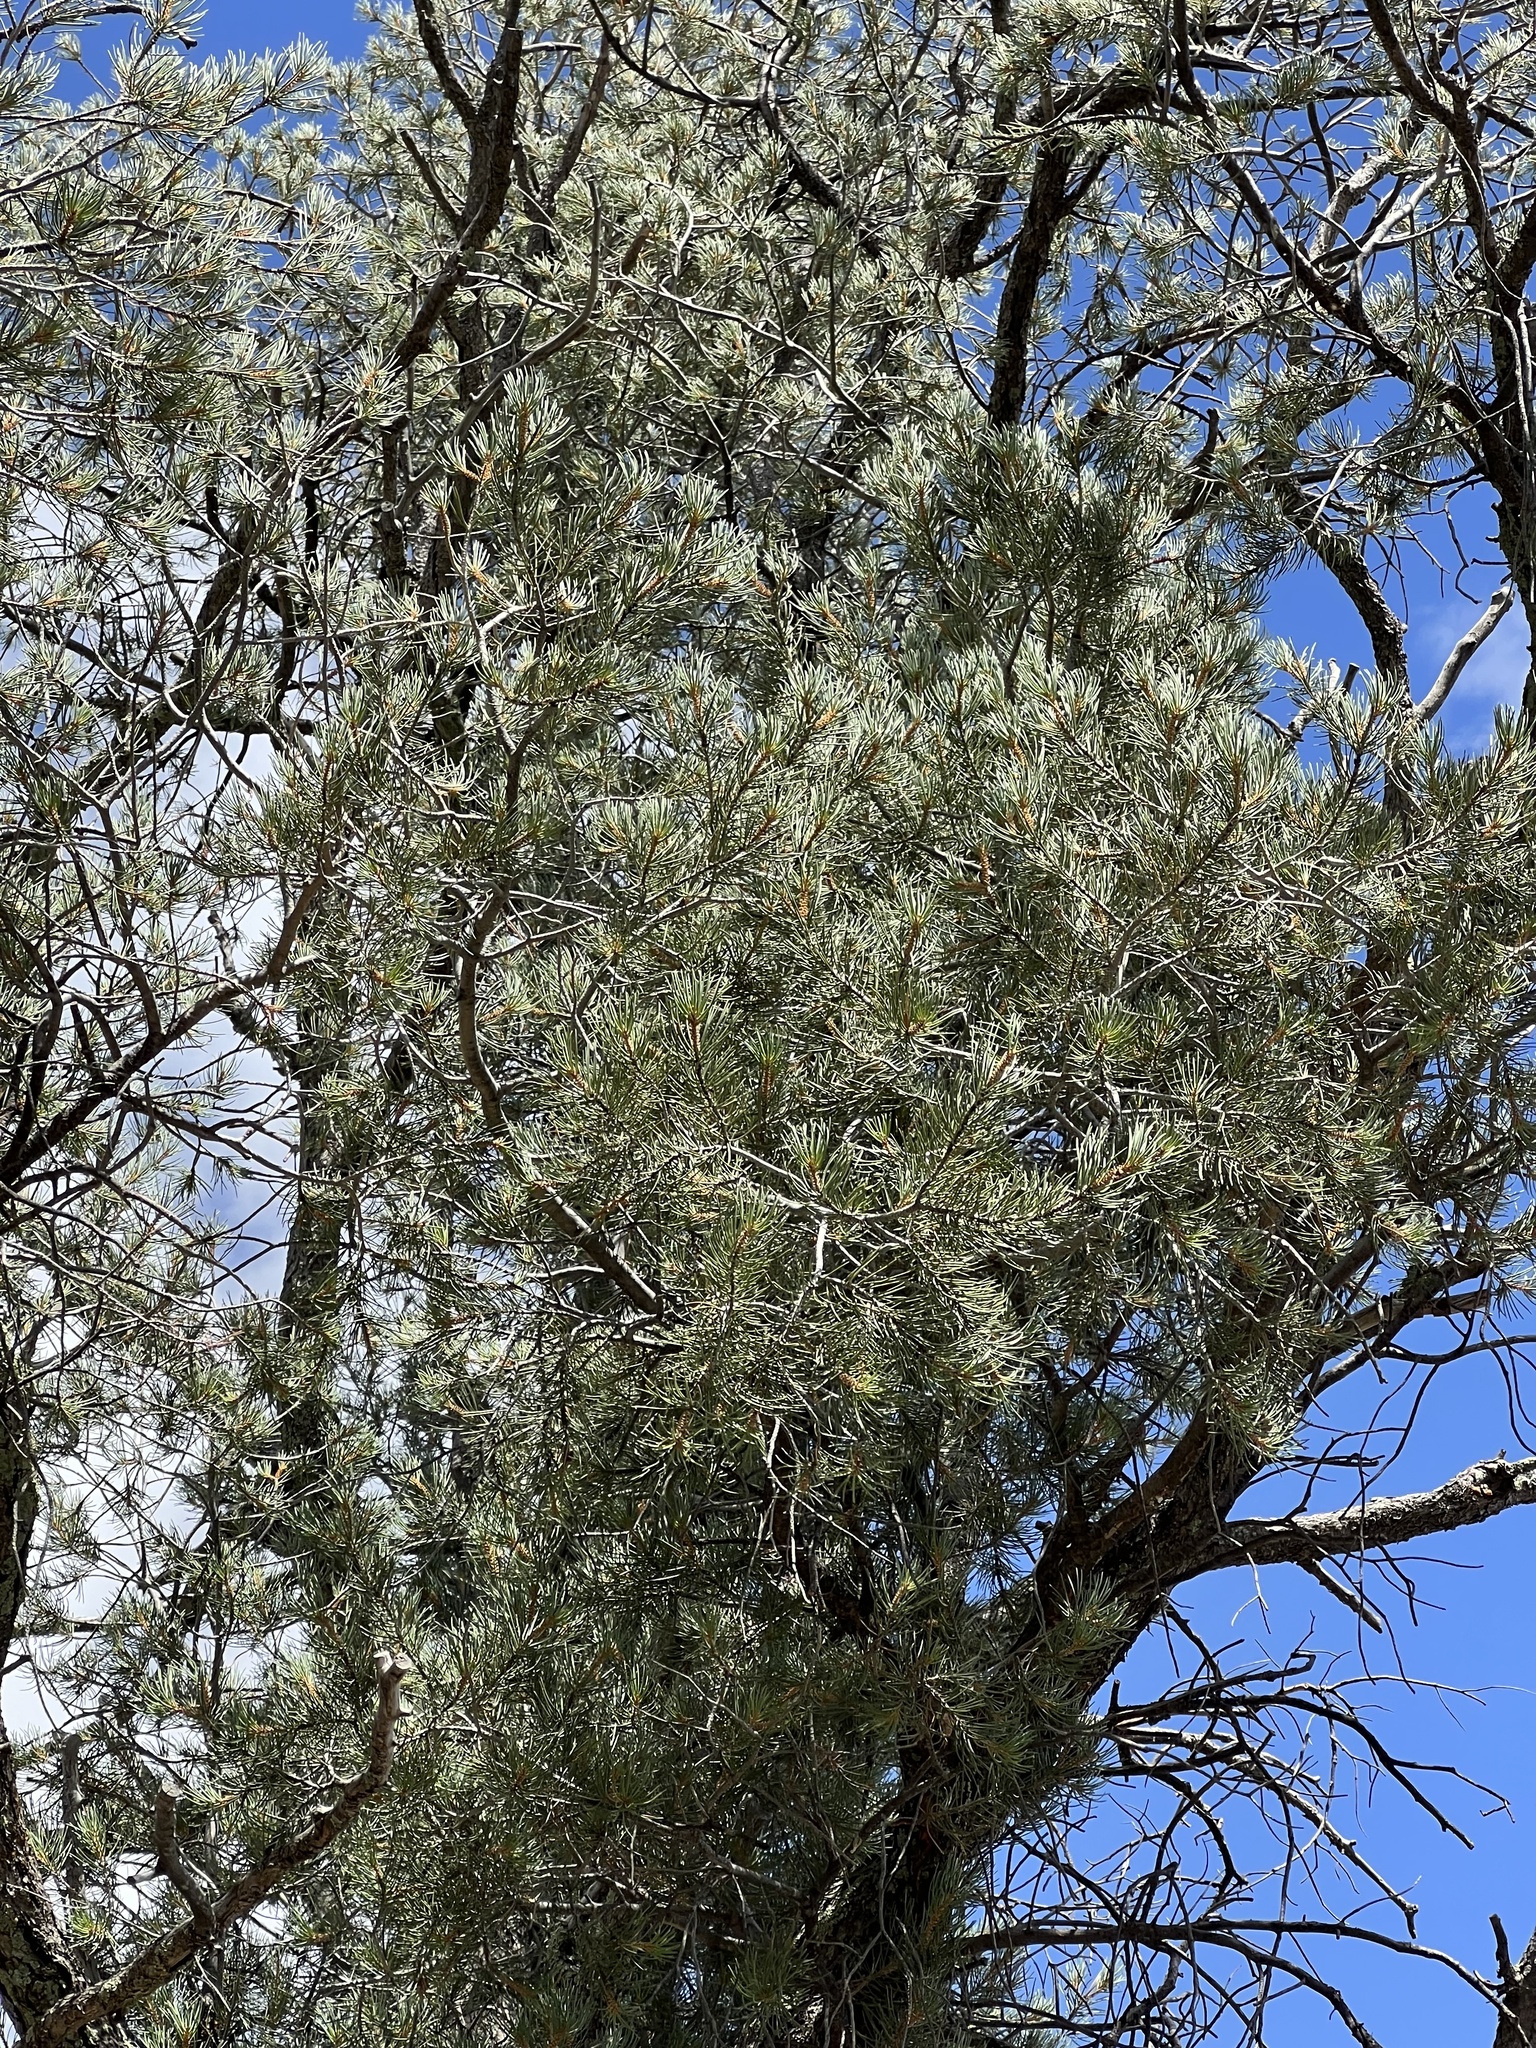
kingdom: Plantae
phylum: Tracheophyta
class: Pinopsida
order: Pinales
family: Pinaceae
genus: Pinus
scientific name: Pinus monophylla
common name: One-leaved nut pine
